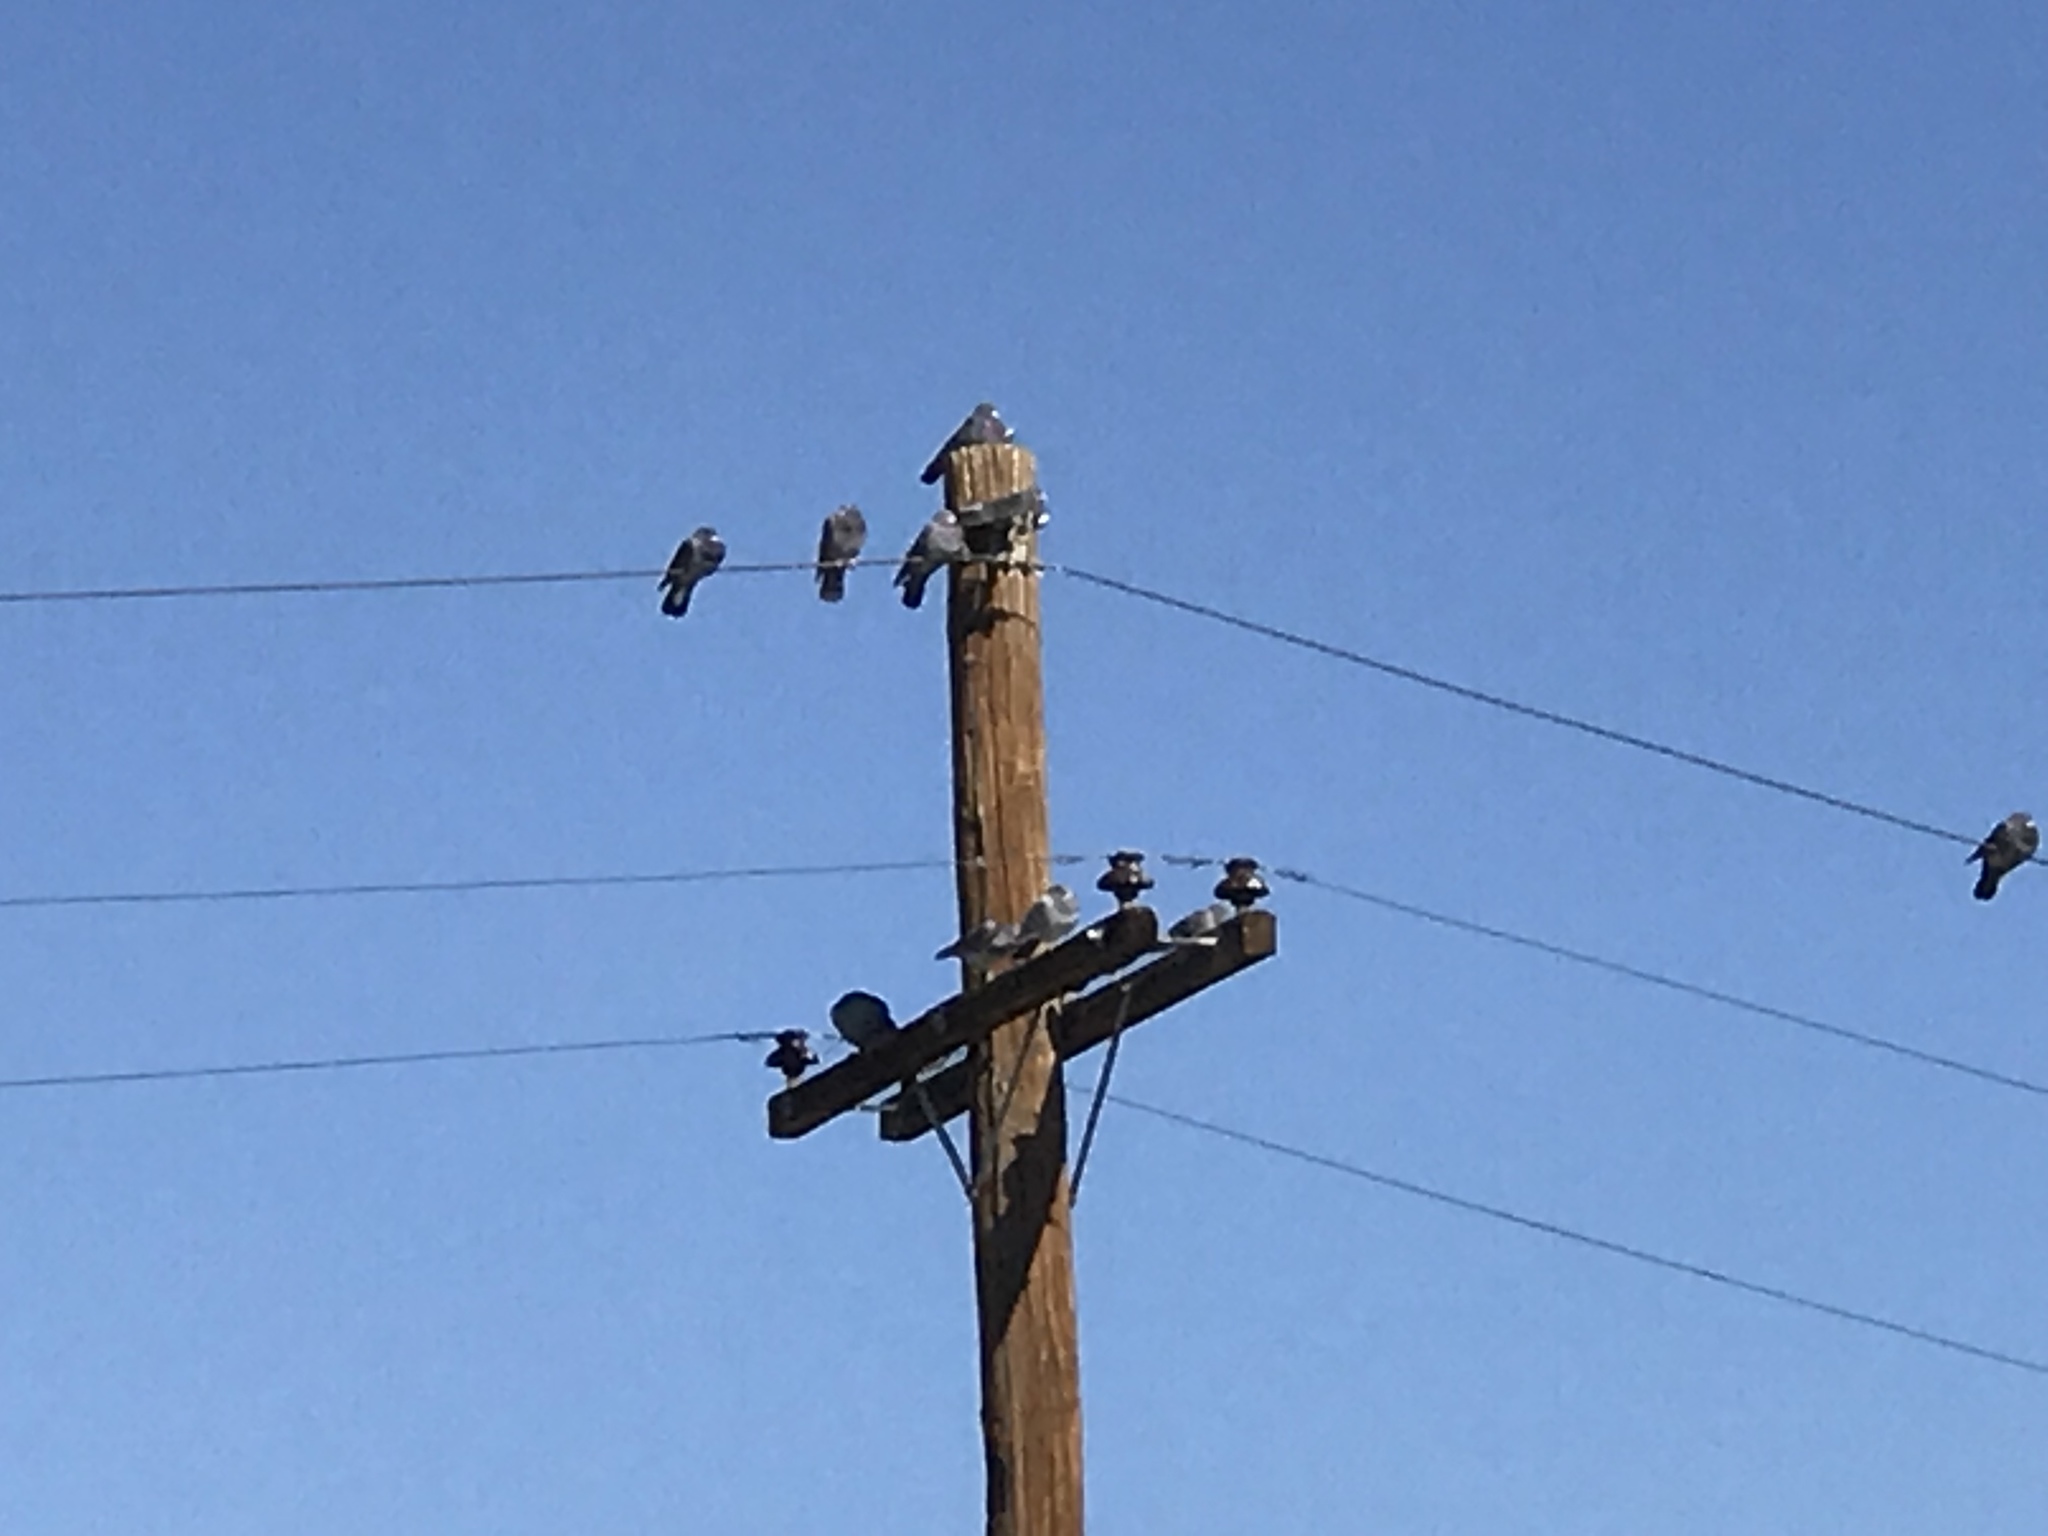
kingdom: Animalia
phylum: Chordata
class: Aves
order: Columbiformes
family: Columbidae
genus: Columba
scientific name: Columba livia
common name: Rock pigeon
